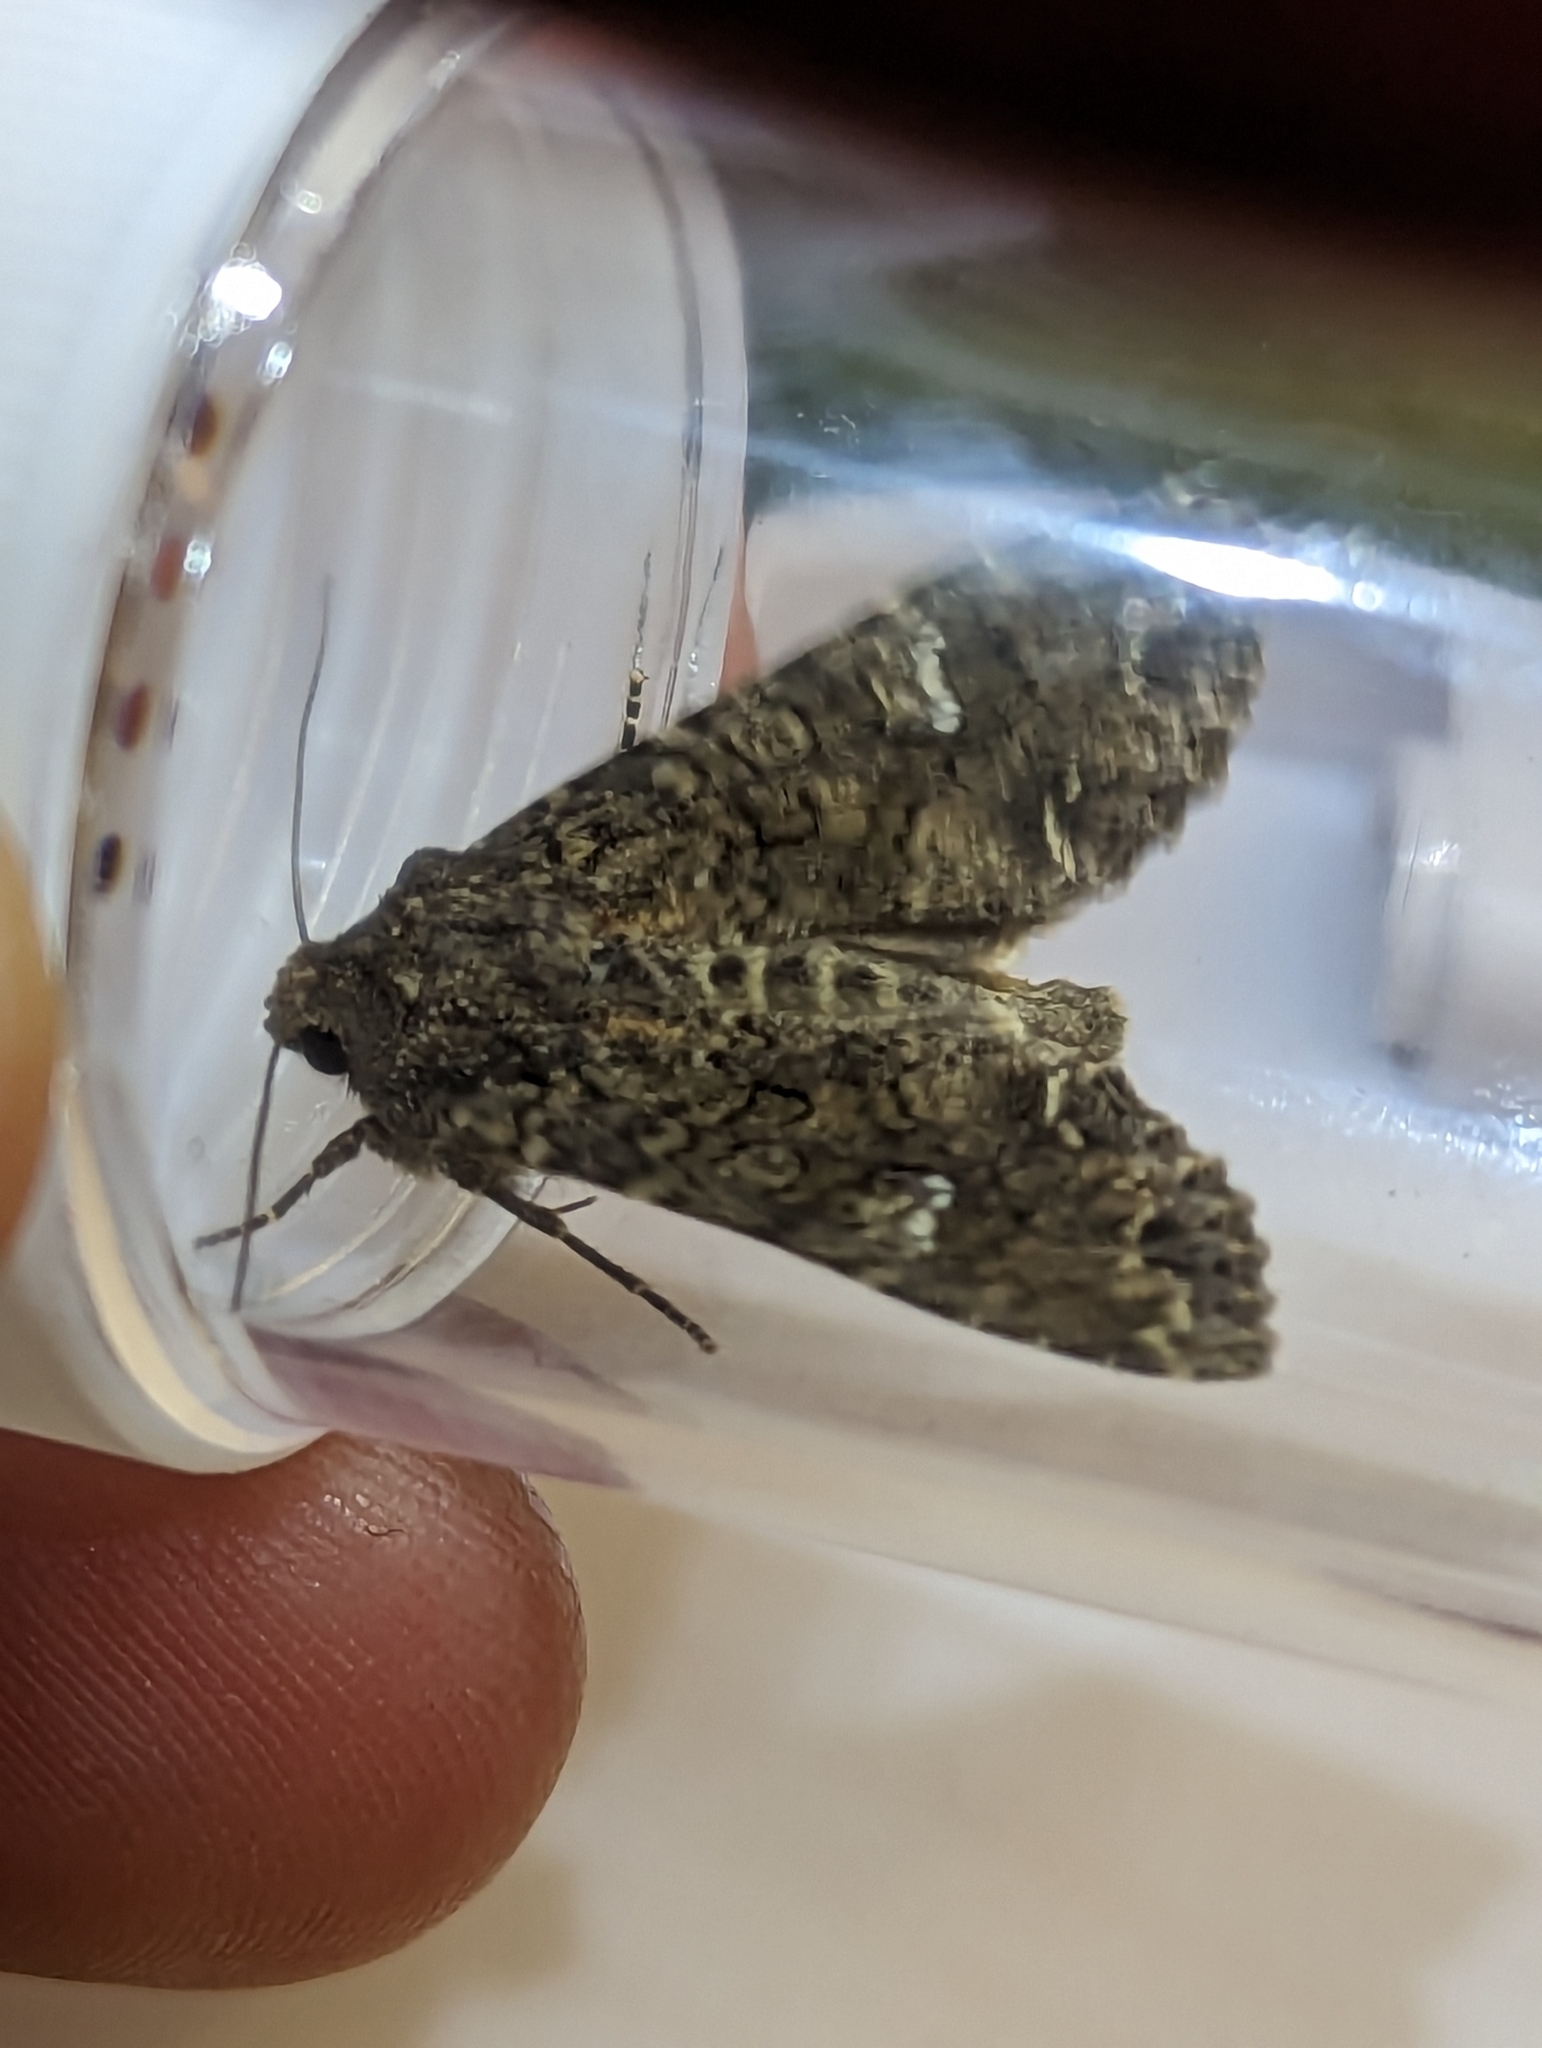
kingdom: Animalia
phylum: Arthropoda
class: Insecta
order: Lepidoptera
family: Noctuidae
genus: Mamestra
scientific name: Mamestra brassicae
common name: Cabbage moth
